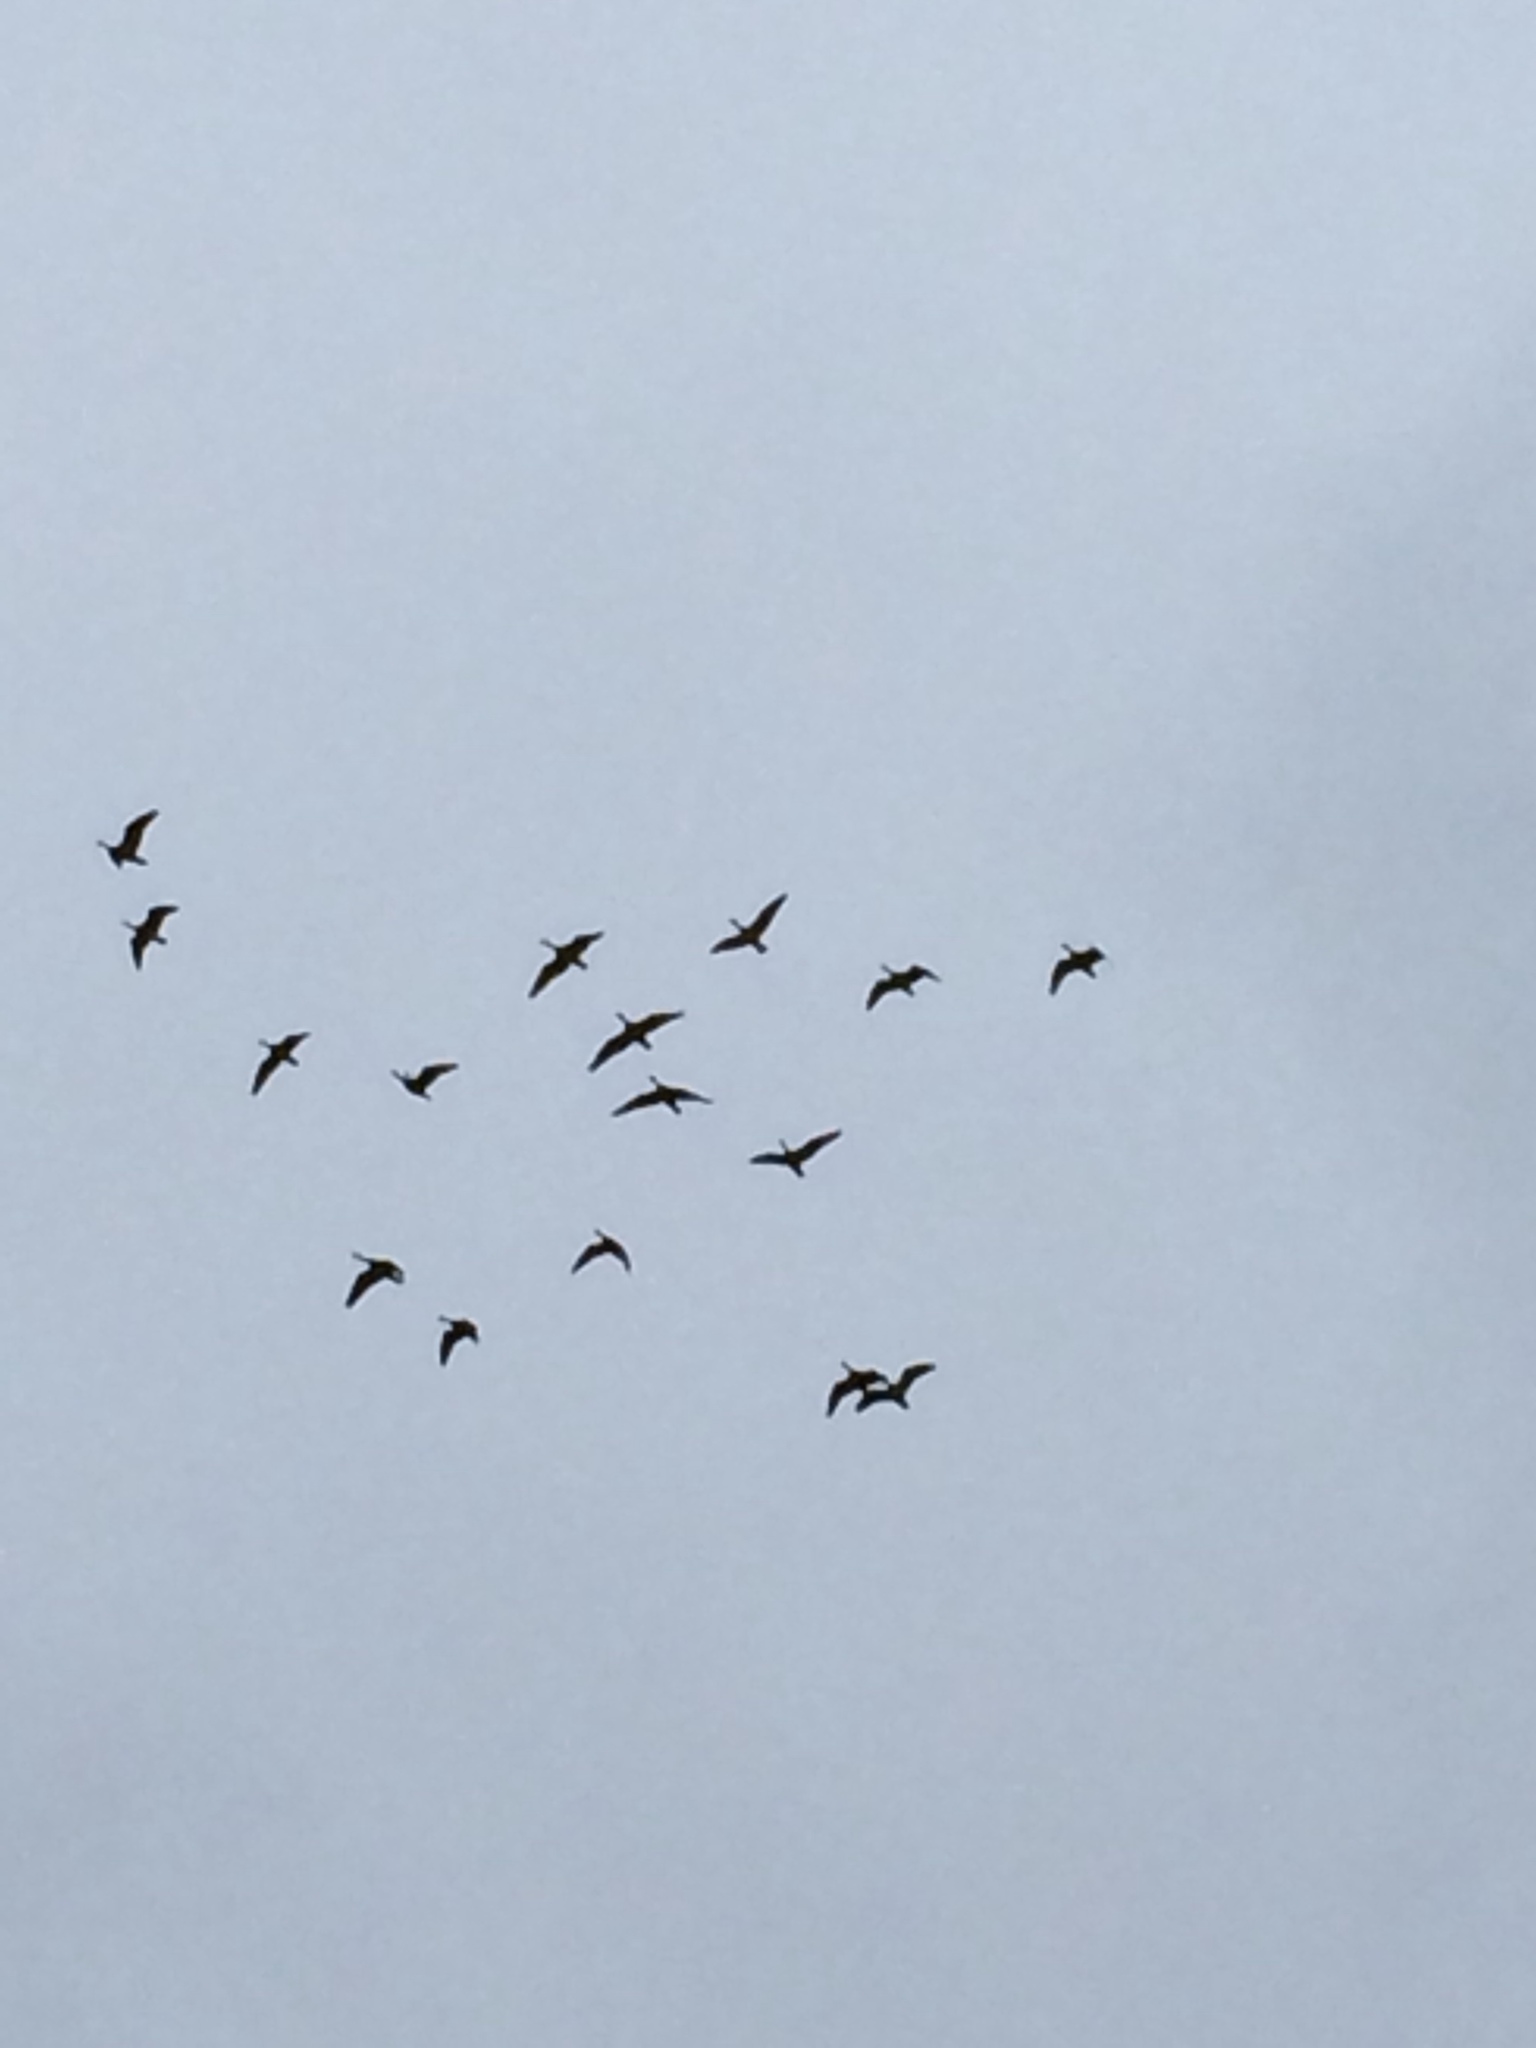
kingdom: Animalia
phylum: Chordata
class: Aves
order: Anseriformes
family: Anatidae
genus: Branta
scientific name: Branta hutchinsii
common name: Cackling goose
